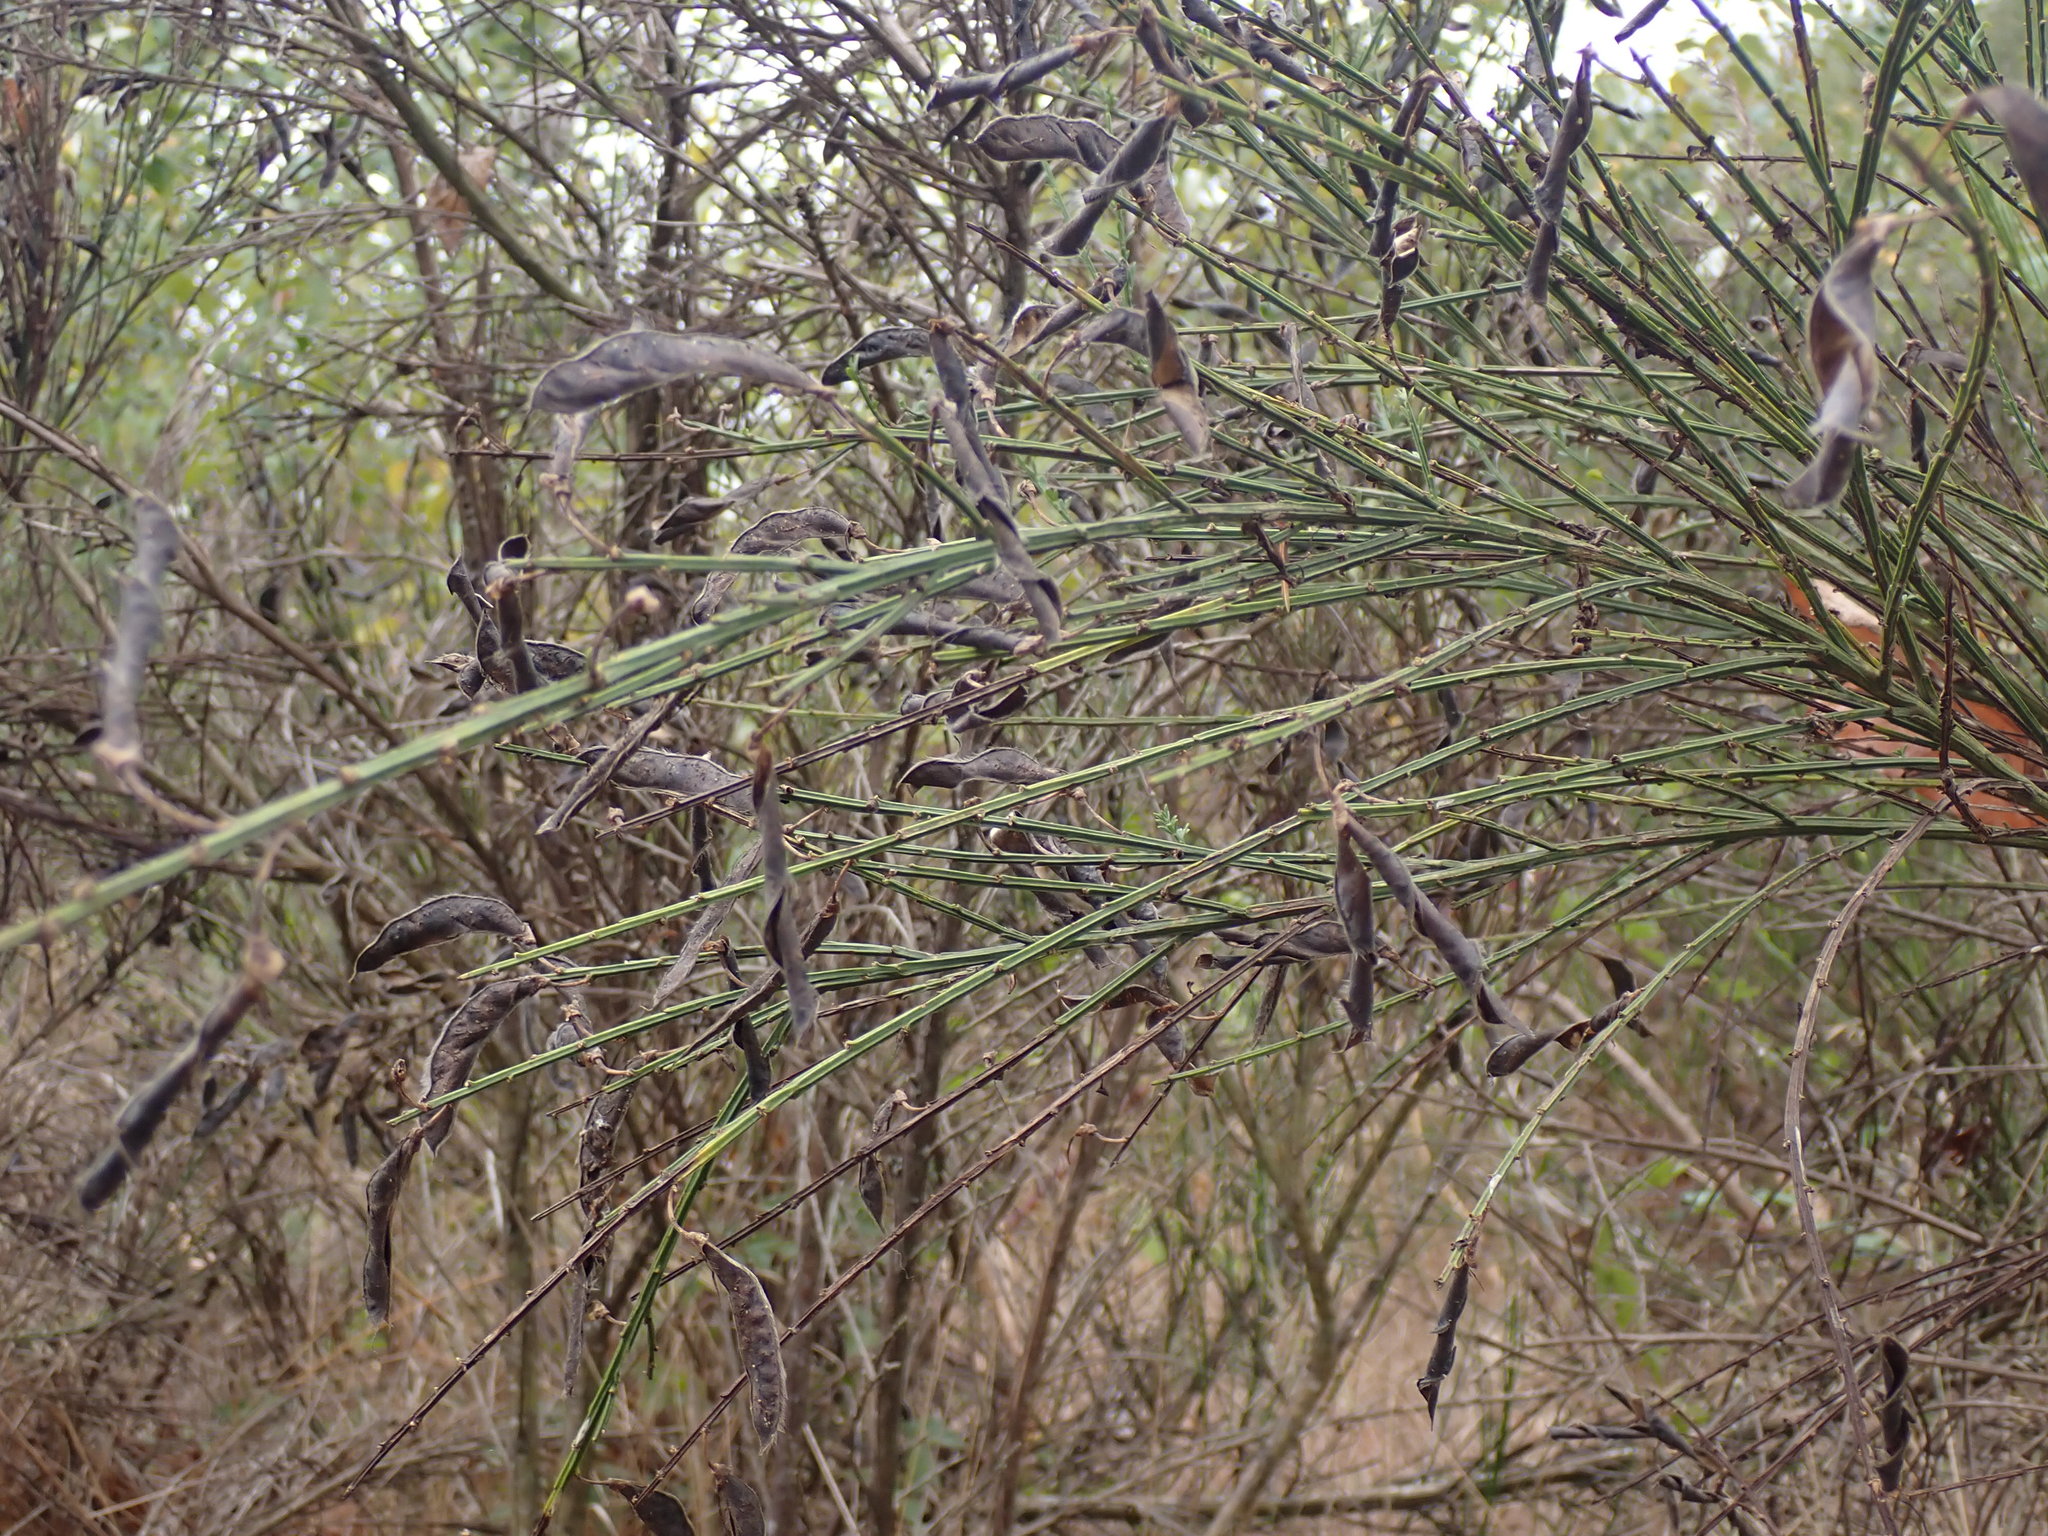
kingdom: Plantae
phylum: Tracheophyta
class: Magnoliopsida
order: Fabales
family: Fabaceae
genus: Cytisus
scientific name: Cytisus scoparius
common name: Scotch broom
